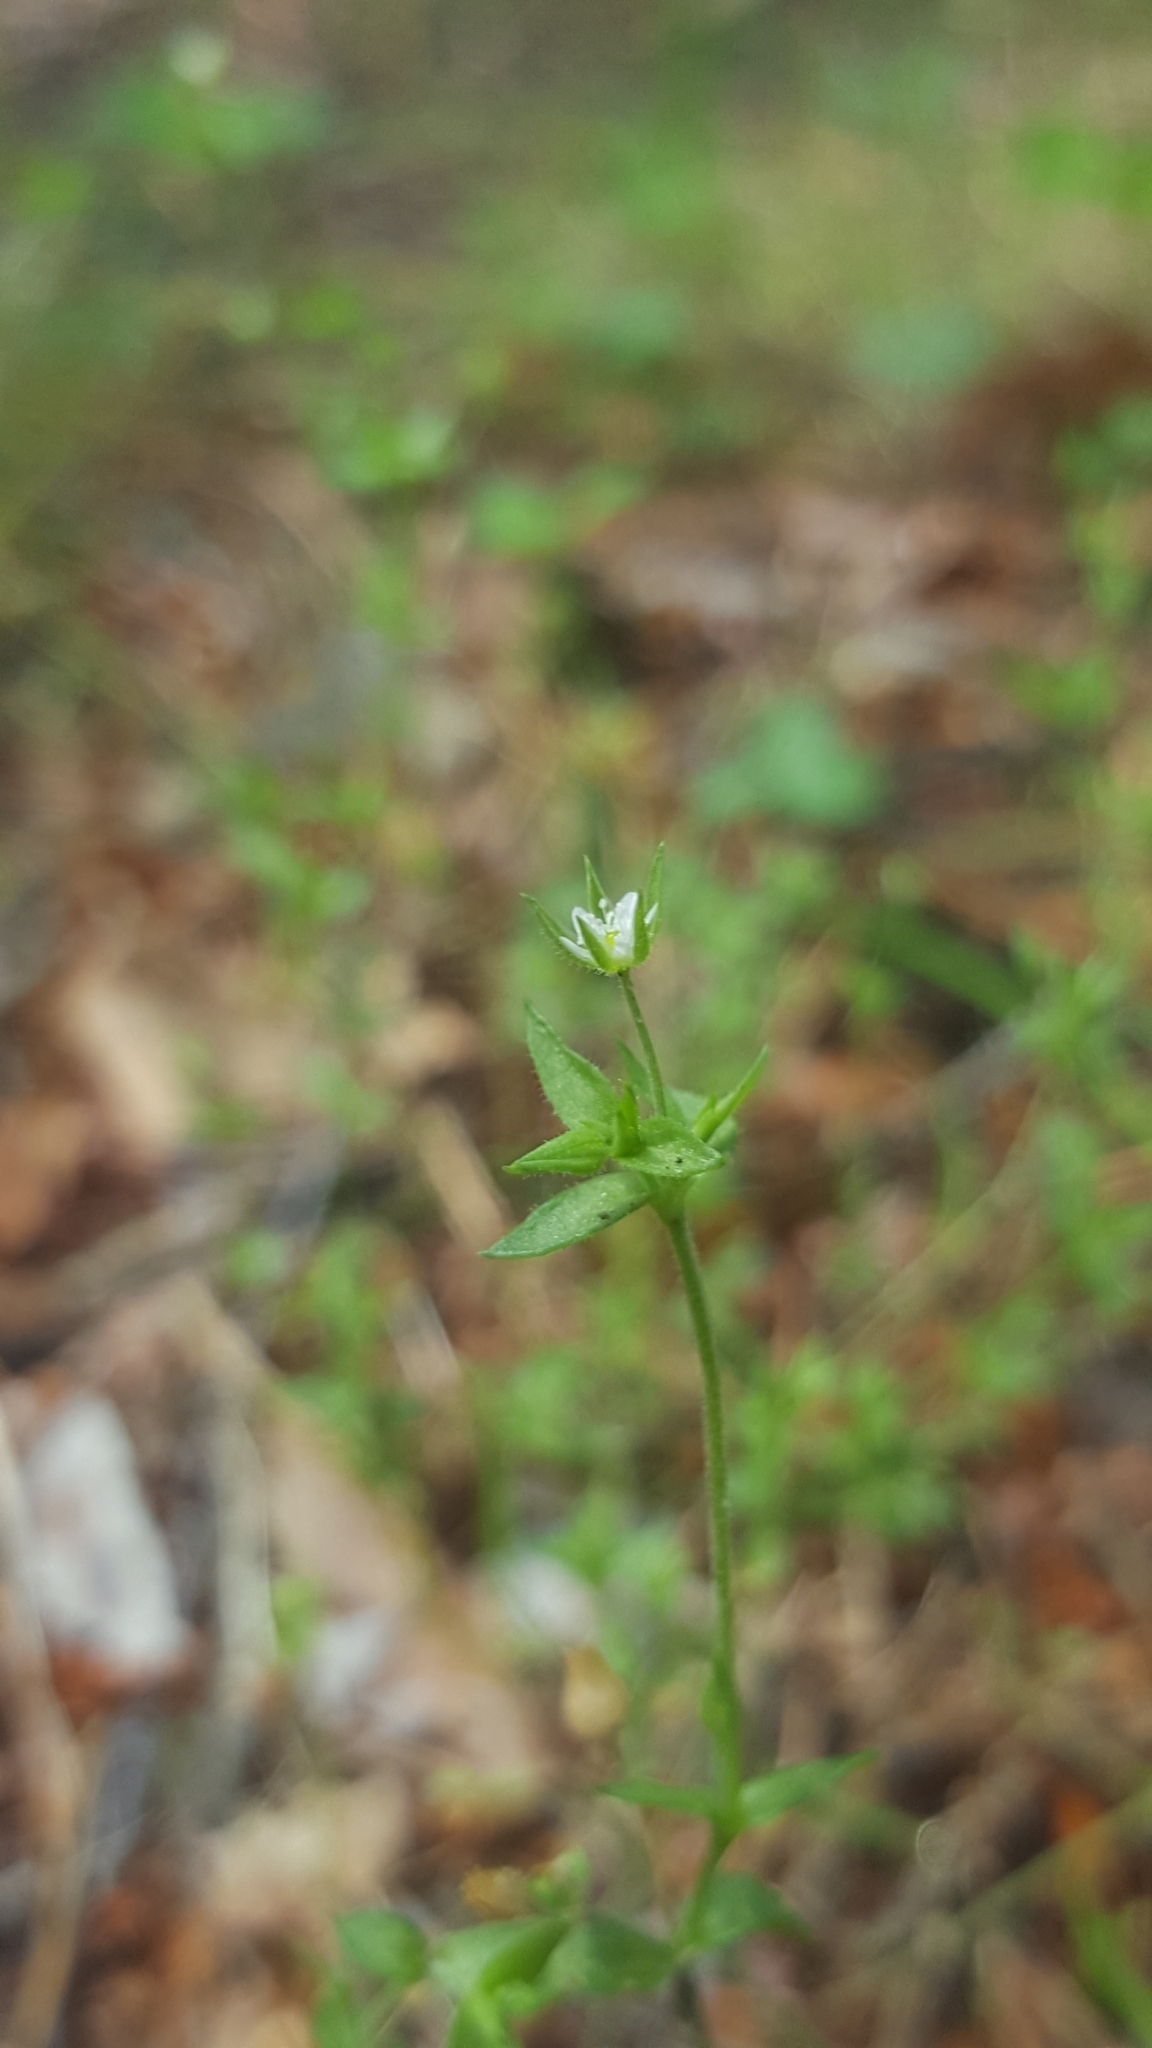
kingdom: Plantae
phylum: Tracheophyta
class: Magnoliopsida
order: Caryophyllales
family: Caryophyllaceae
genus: Arenaria
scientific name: Arenaria serpyllifolia
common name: Thyme-leaved sandwort
